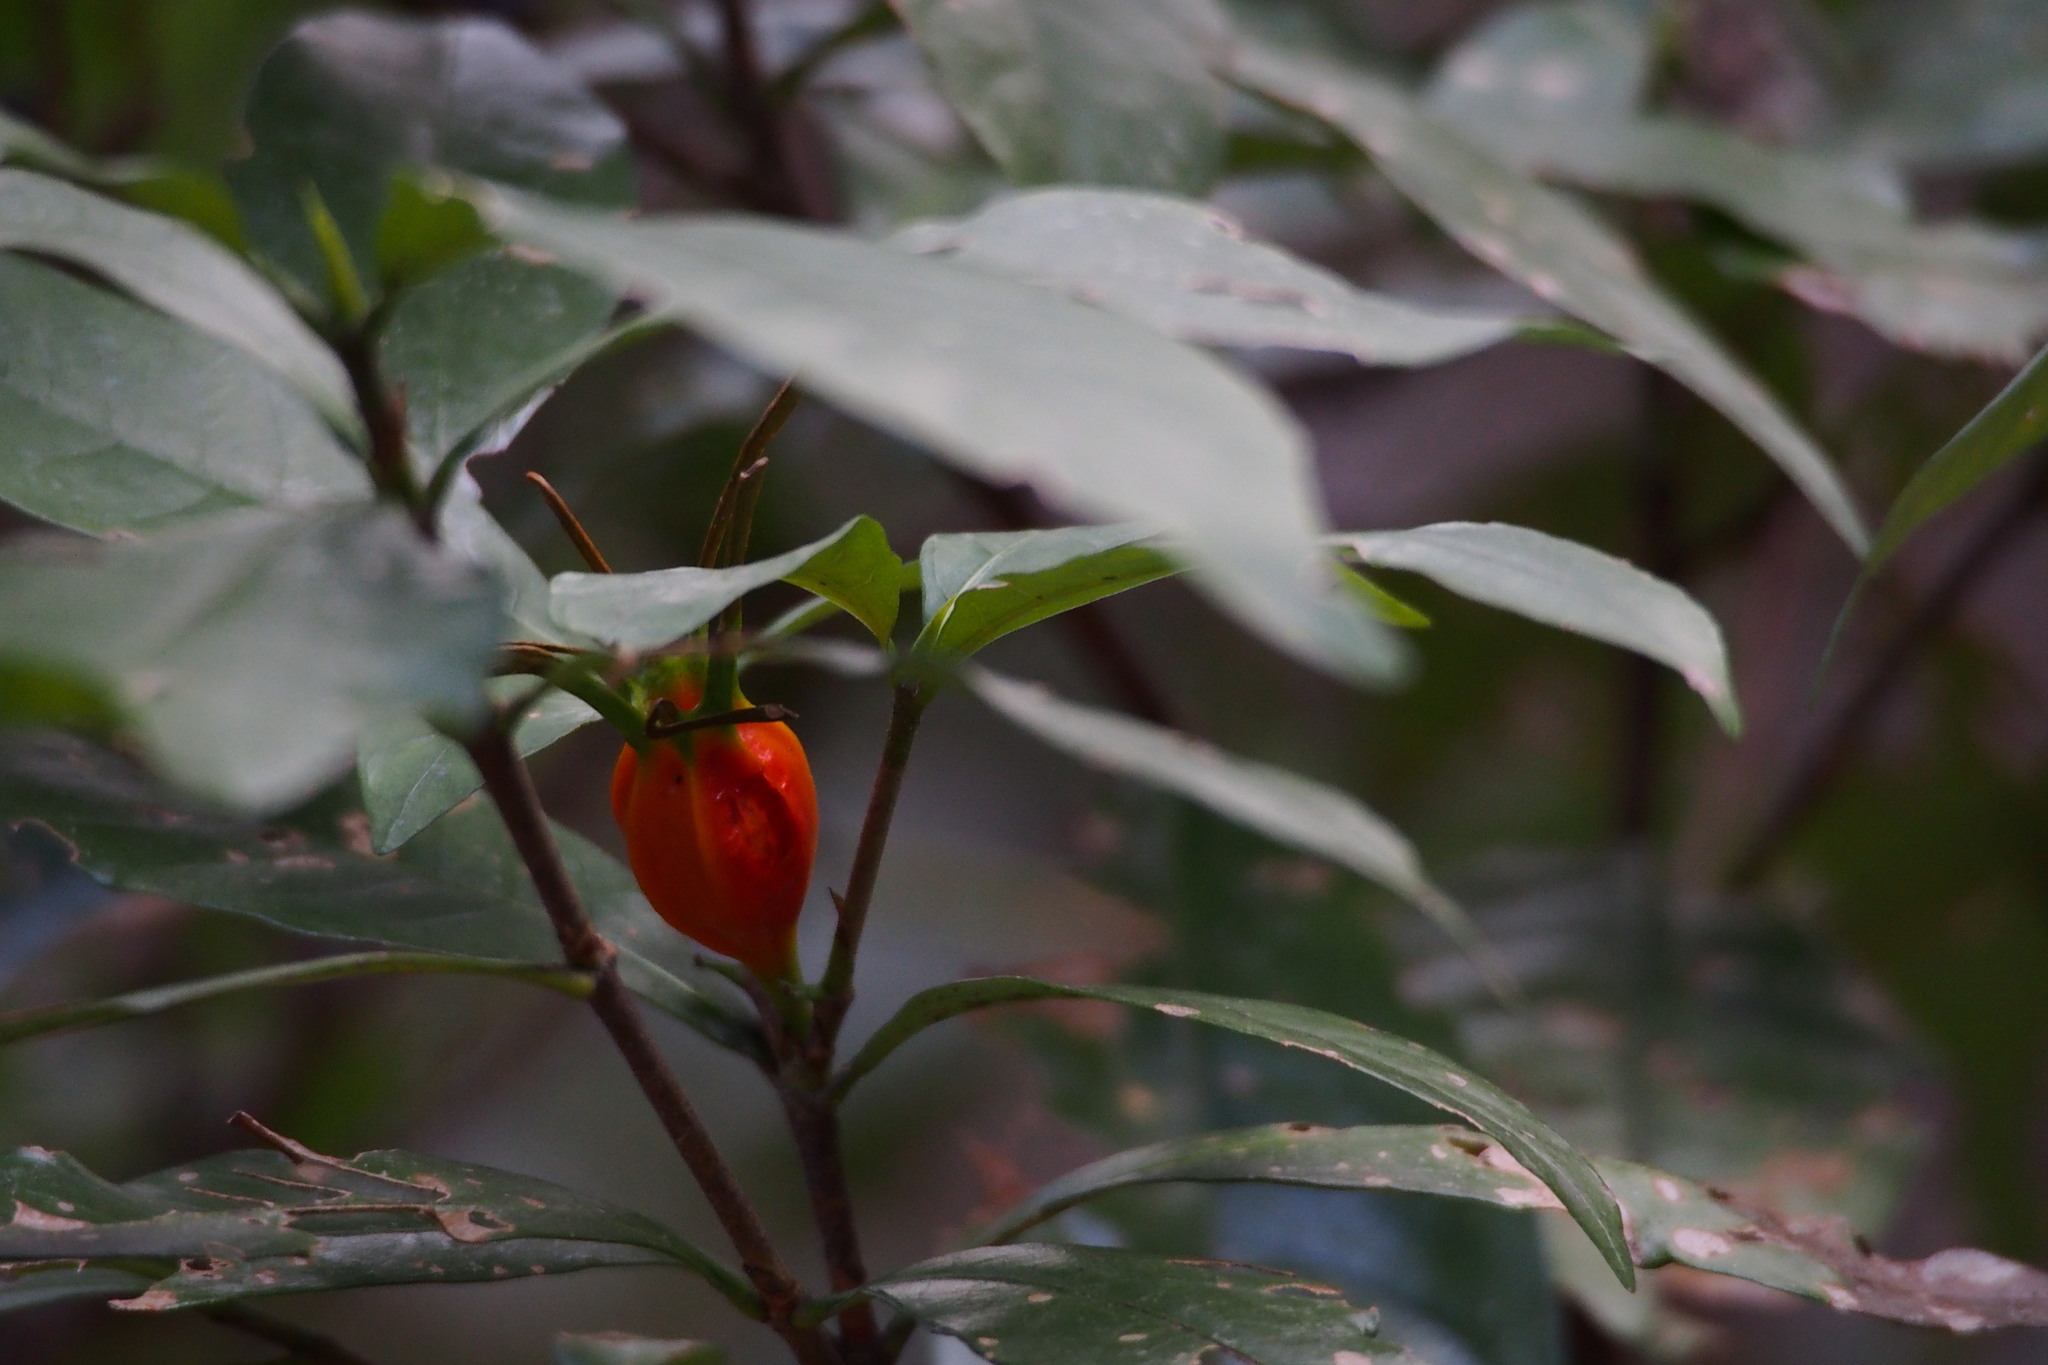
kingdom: Plantae
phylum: Tracheophyta
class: Magnoliopsida
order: Gentianales
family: Rubiaceae
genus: Gardenia
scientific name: Gardenia jasminoides
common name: Cape-jasmine
